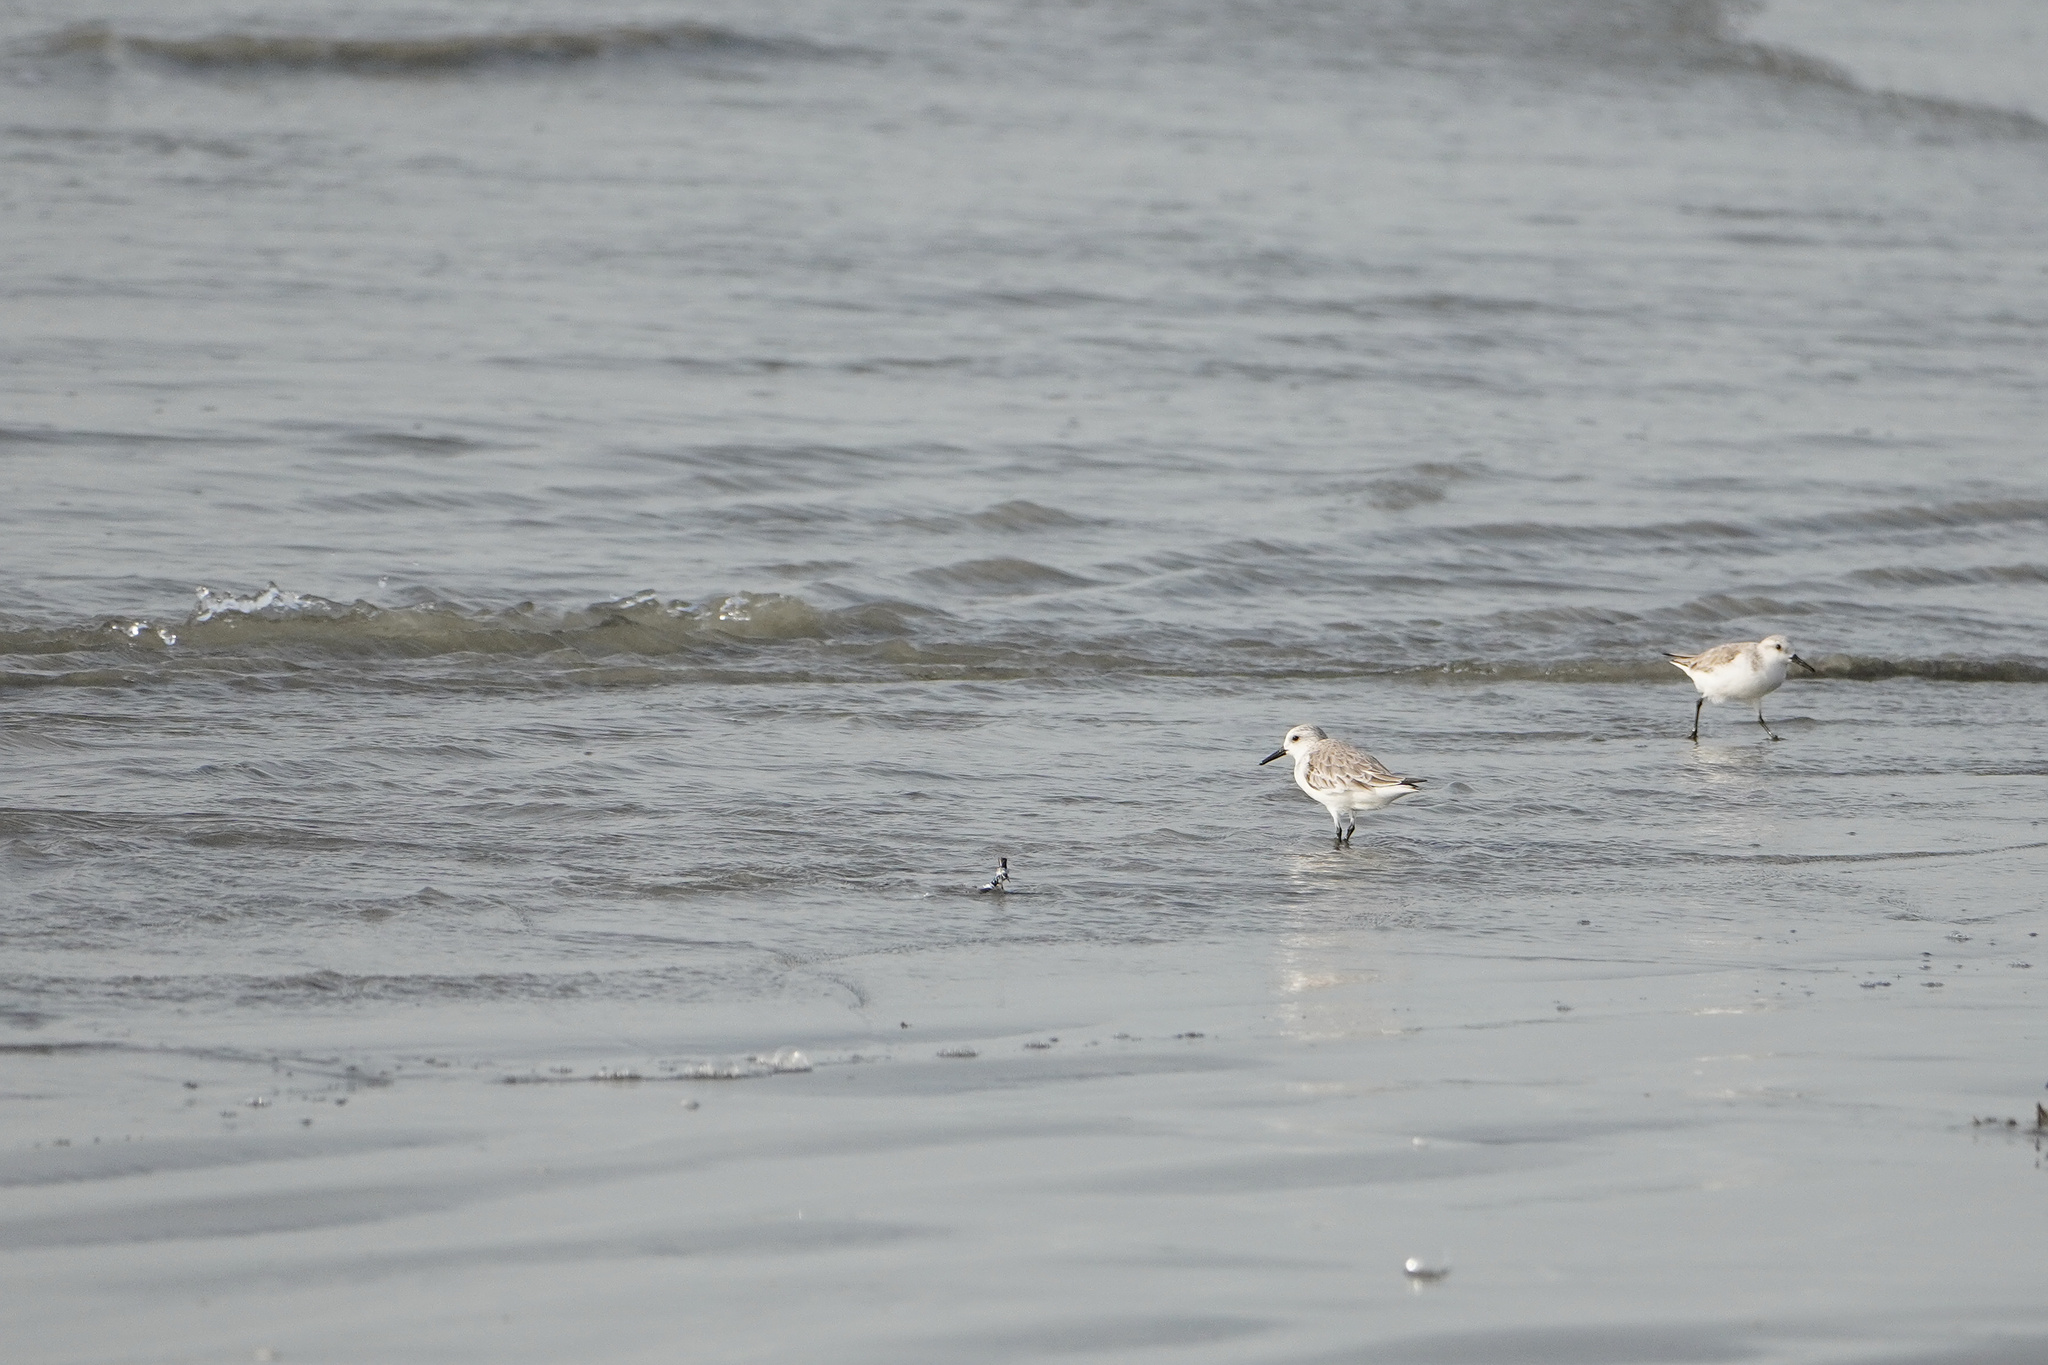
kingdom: Animalia
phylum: Chordata
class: Aves
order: Charadriiformes
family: Scolopacidae
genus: Calidris
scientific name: Calidris alba
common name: Sanderling
